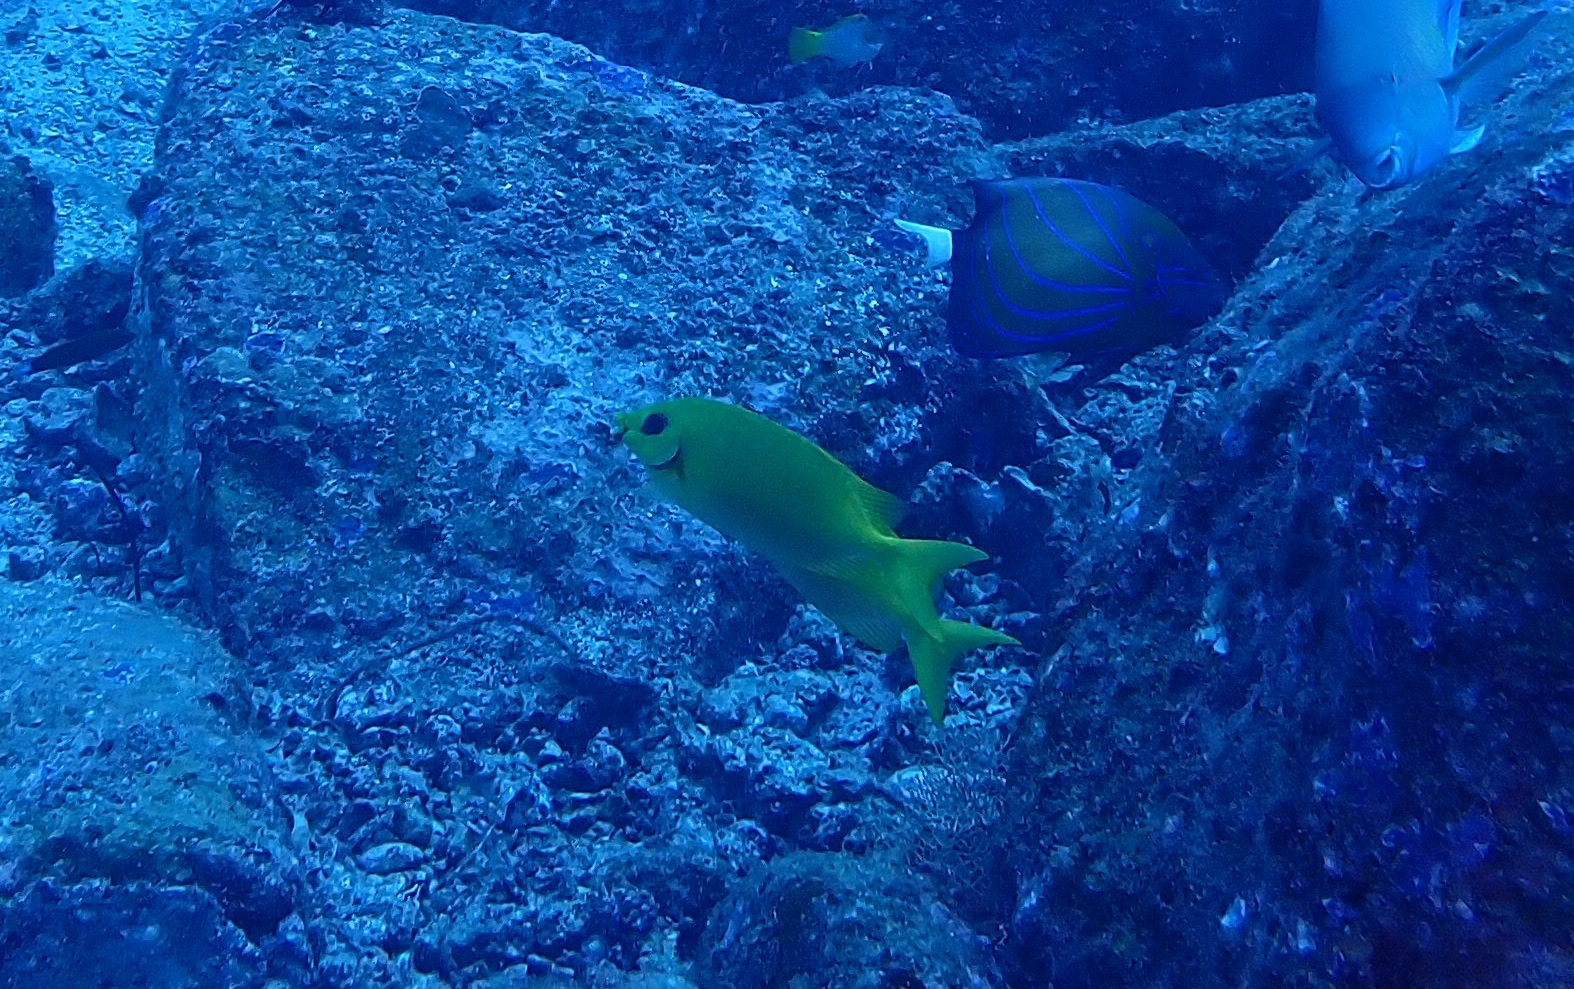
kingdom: Animalia
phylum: Chordata
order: Perciformes
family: Pomacanthidae
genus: Pomacanthus
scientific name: Pomacanthus annularis
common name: Bluering angelfish
